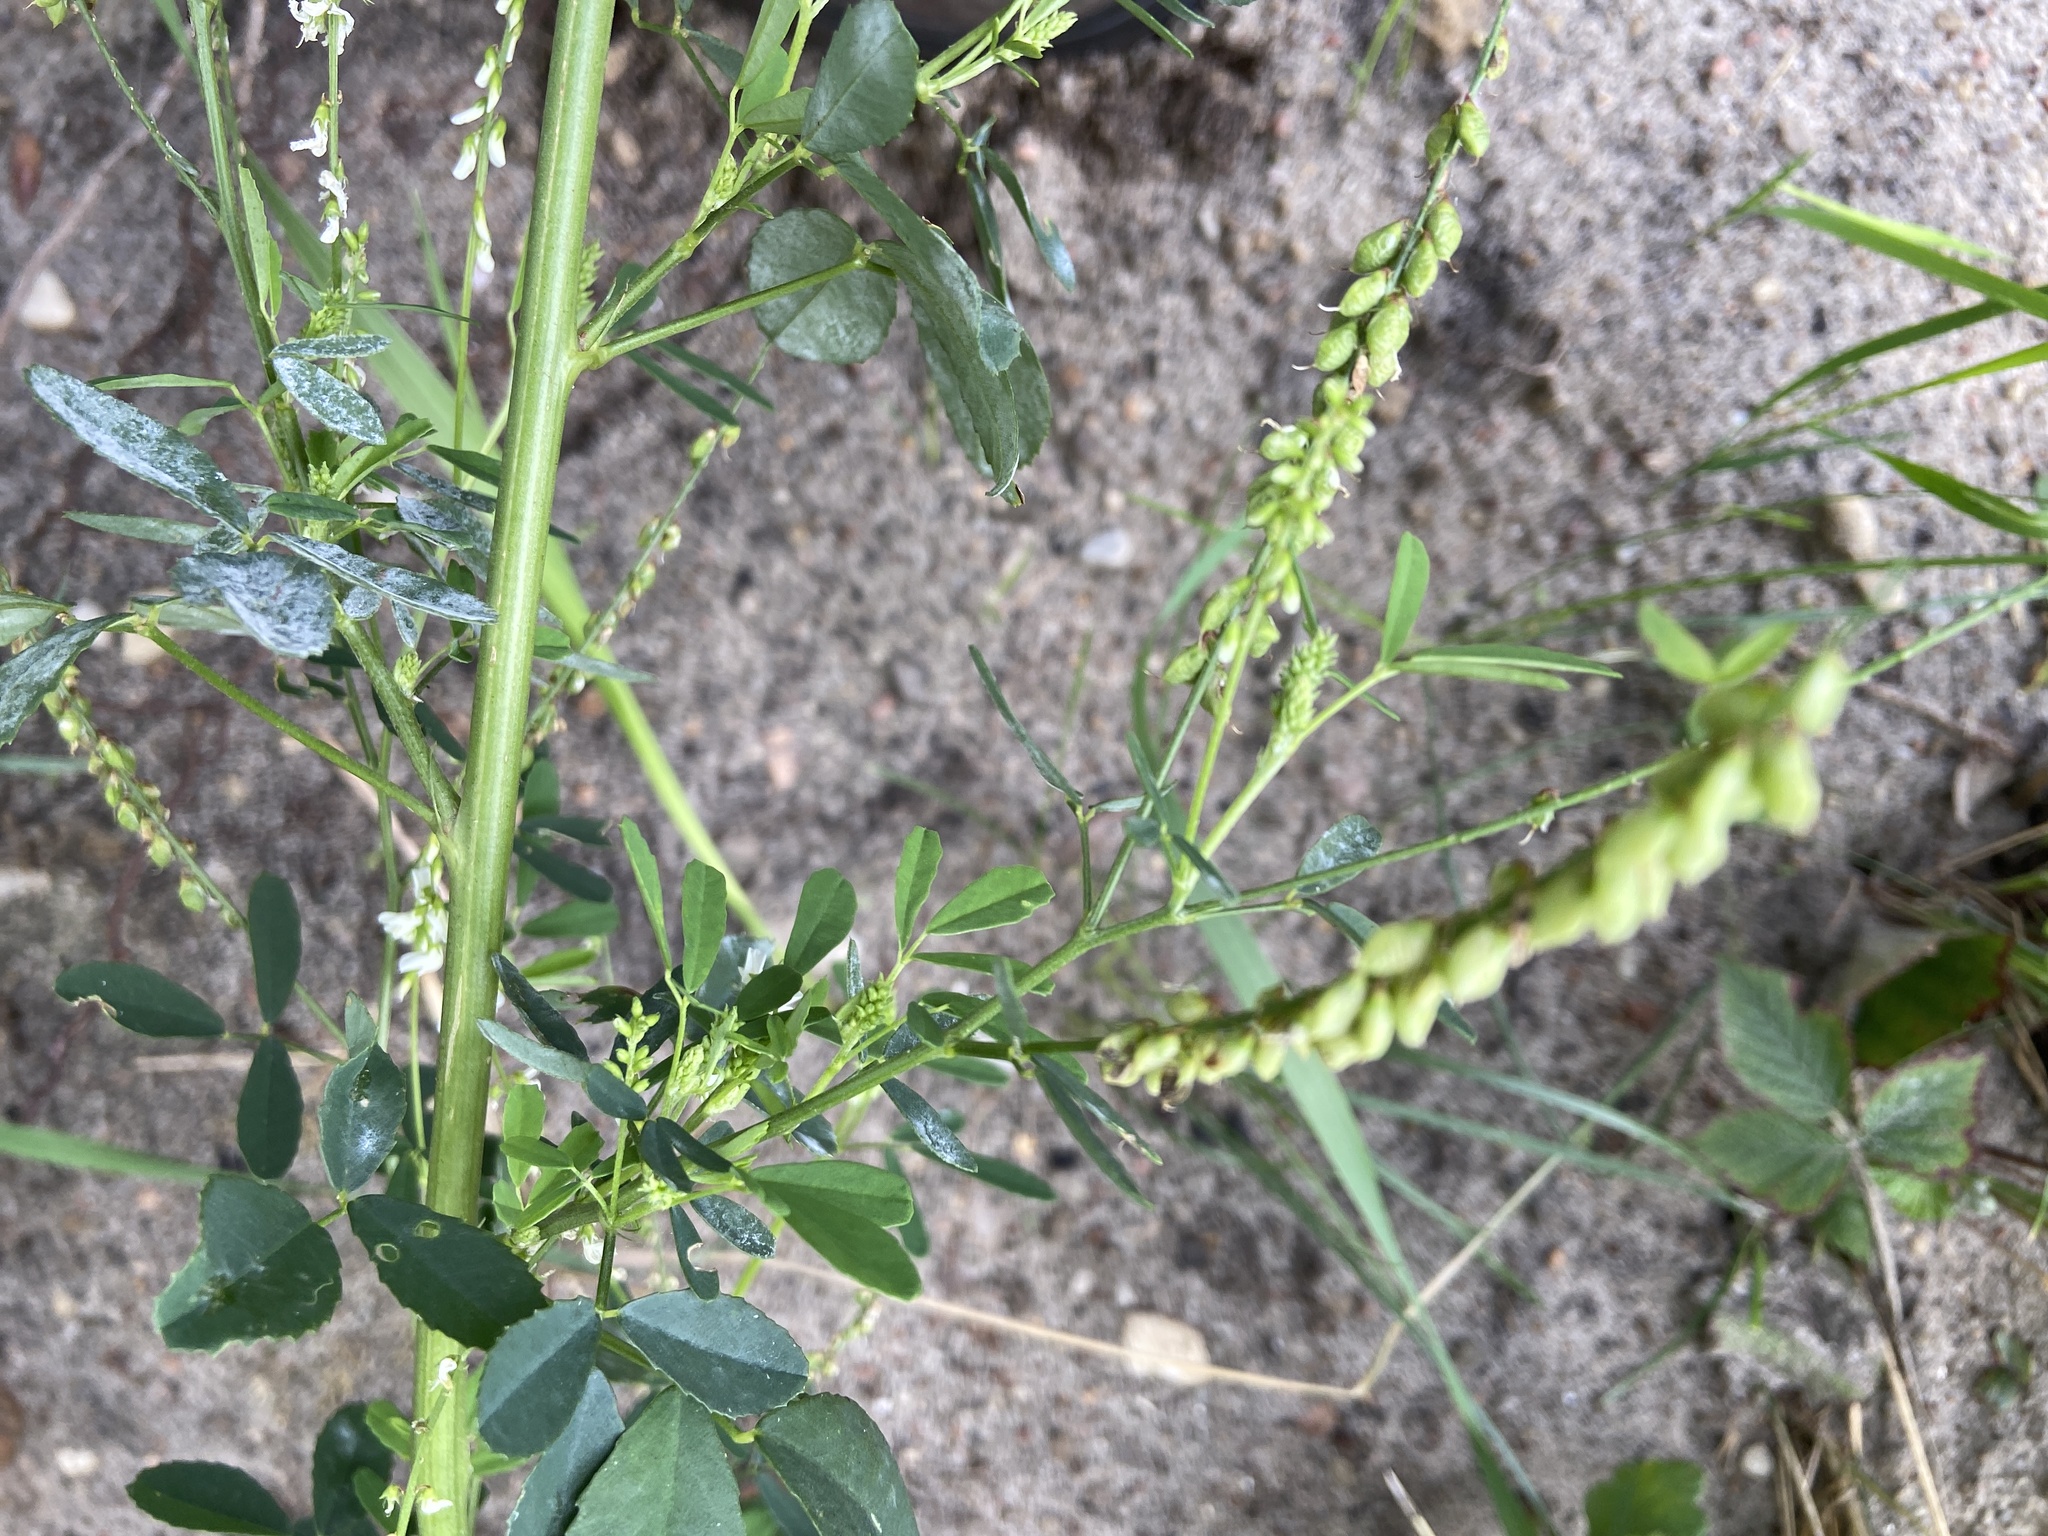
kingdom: Plantae
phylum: Tracheophyta
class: Magnoliopsida
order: Fabales
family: Fabaceae
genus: Melilotus
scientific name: Melilotus albus
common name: White melilot
